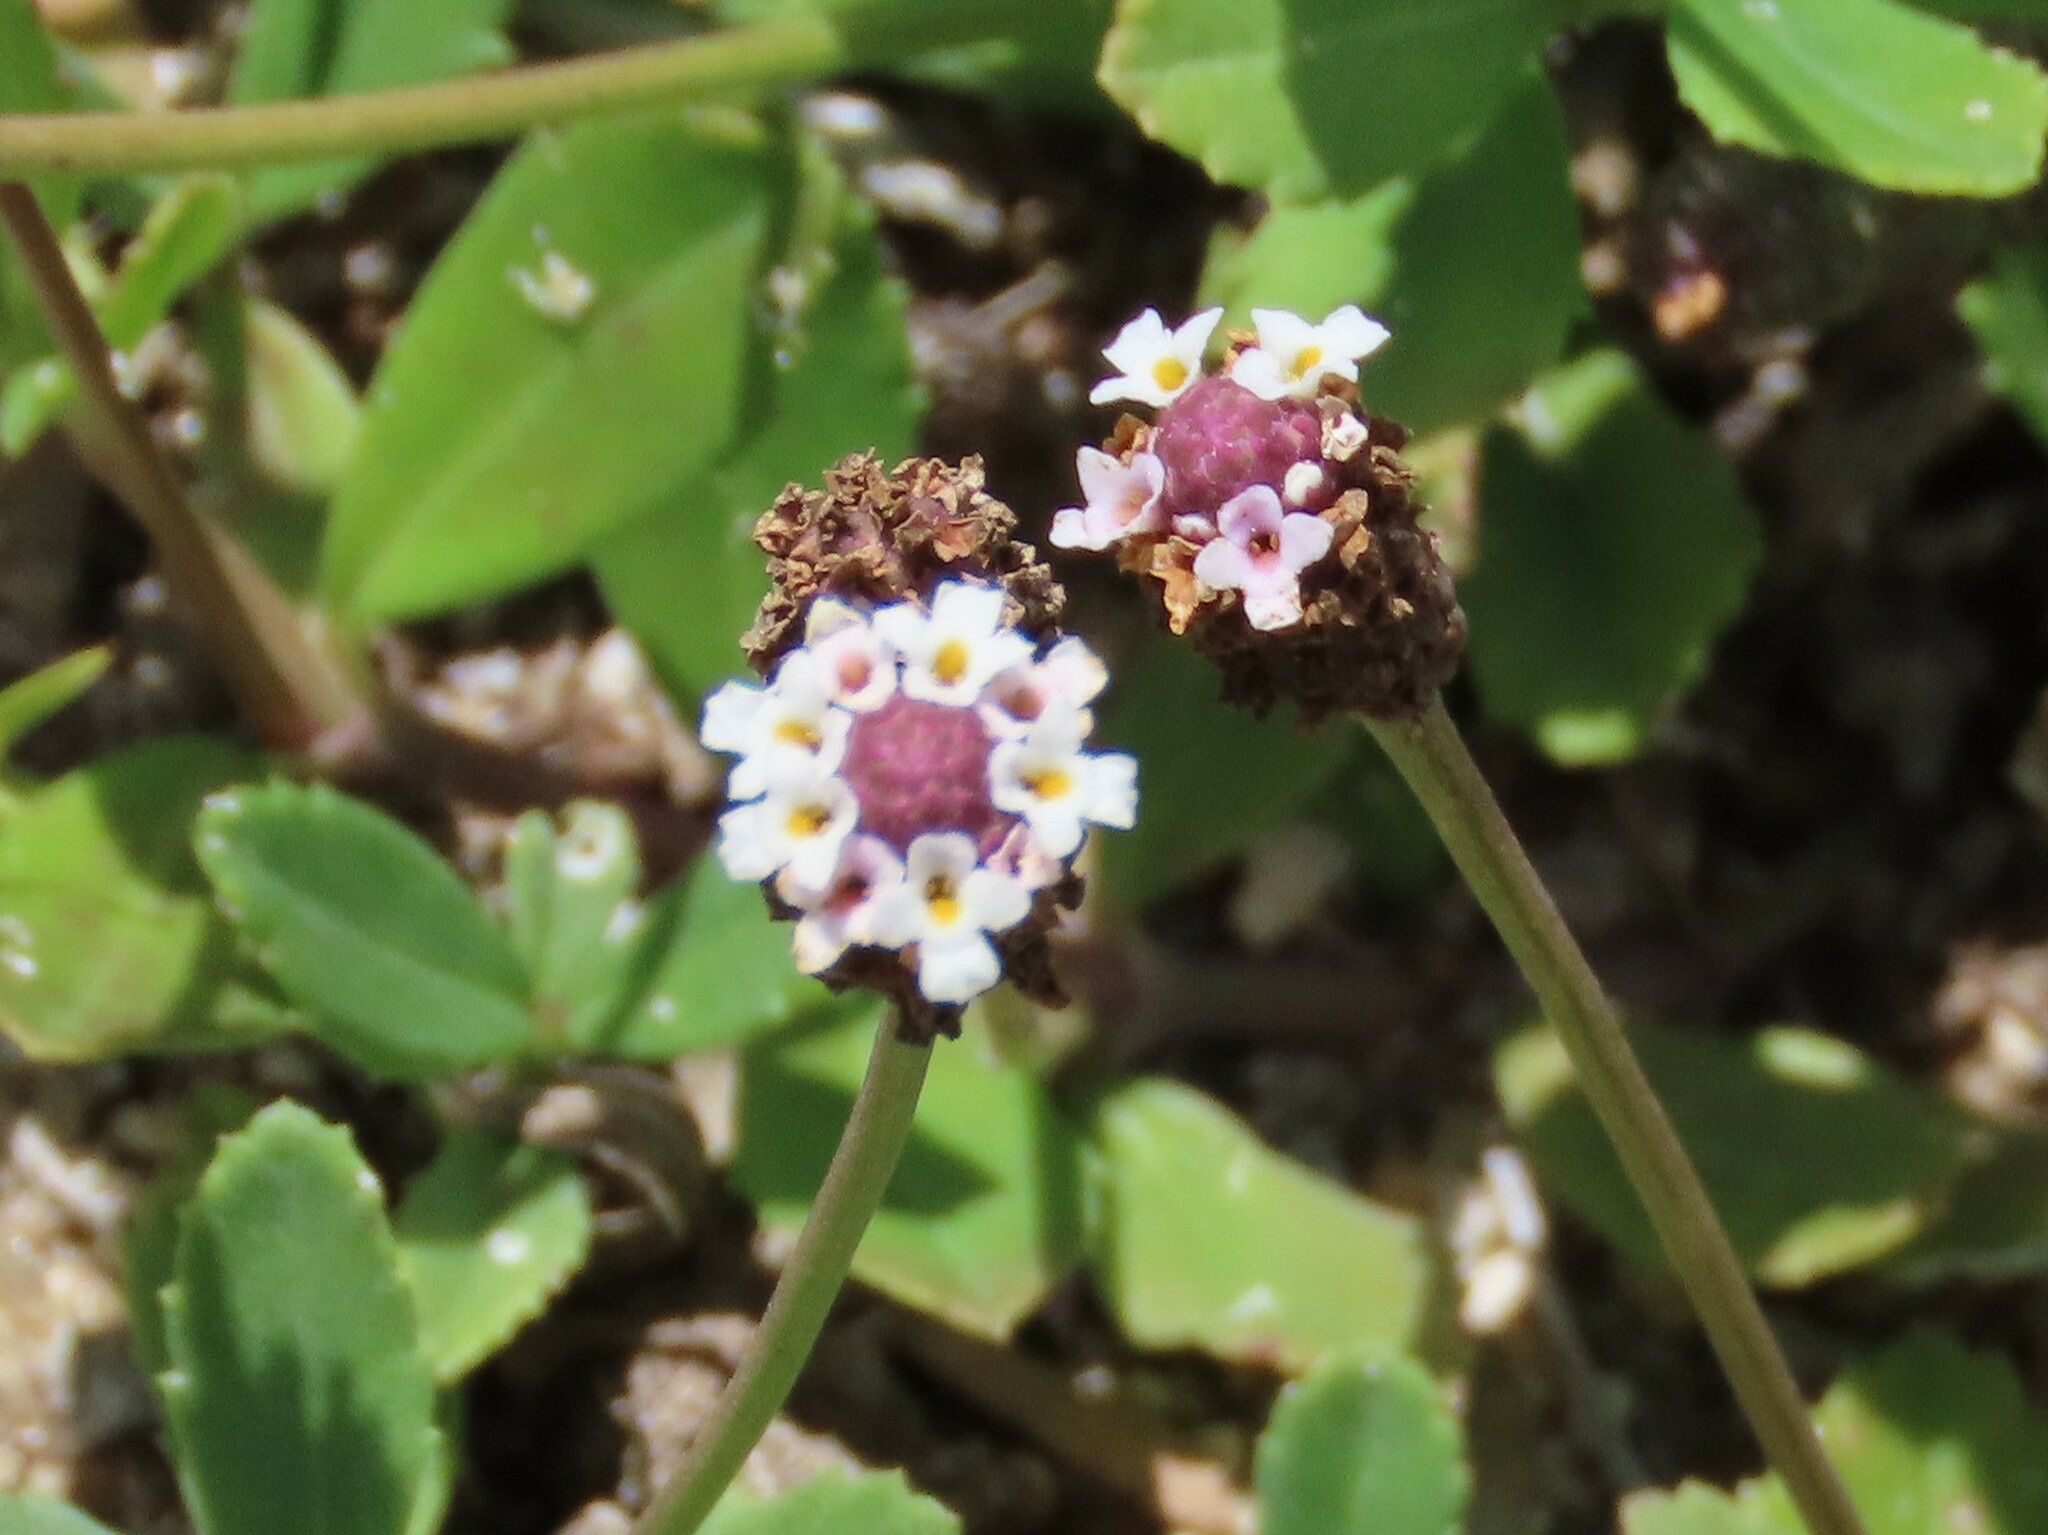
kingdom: Plantae
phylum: Tracheophyta
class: Magnoliopsida
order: Lamiales
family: Verbenaceae
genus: Phyla
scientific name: Phyla nodiflora
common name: Frogfruit
